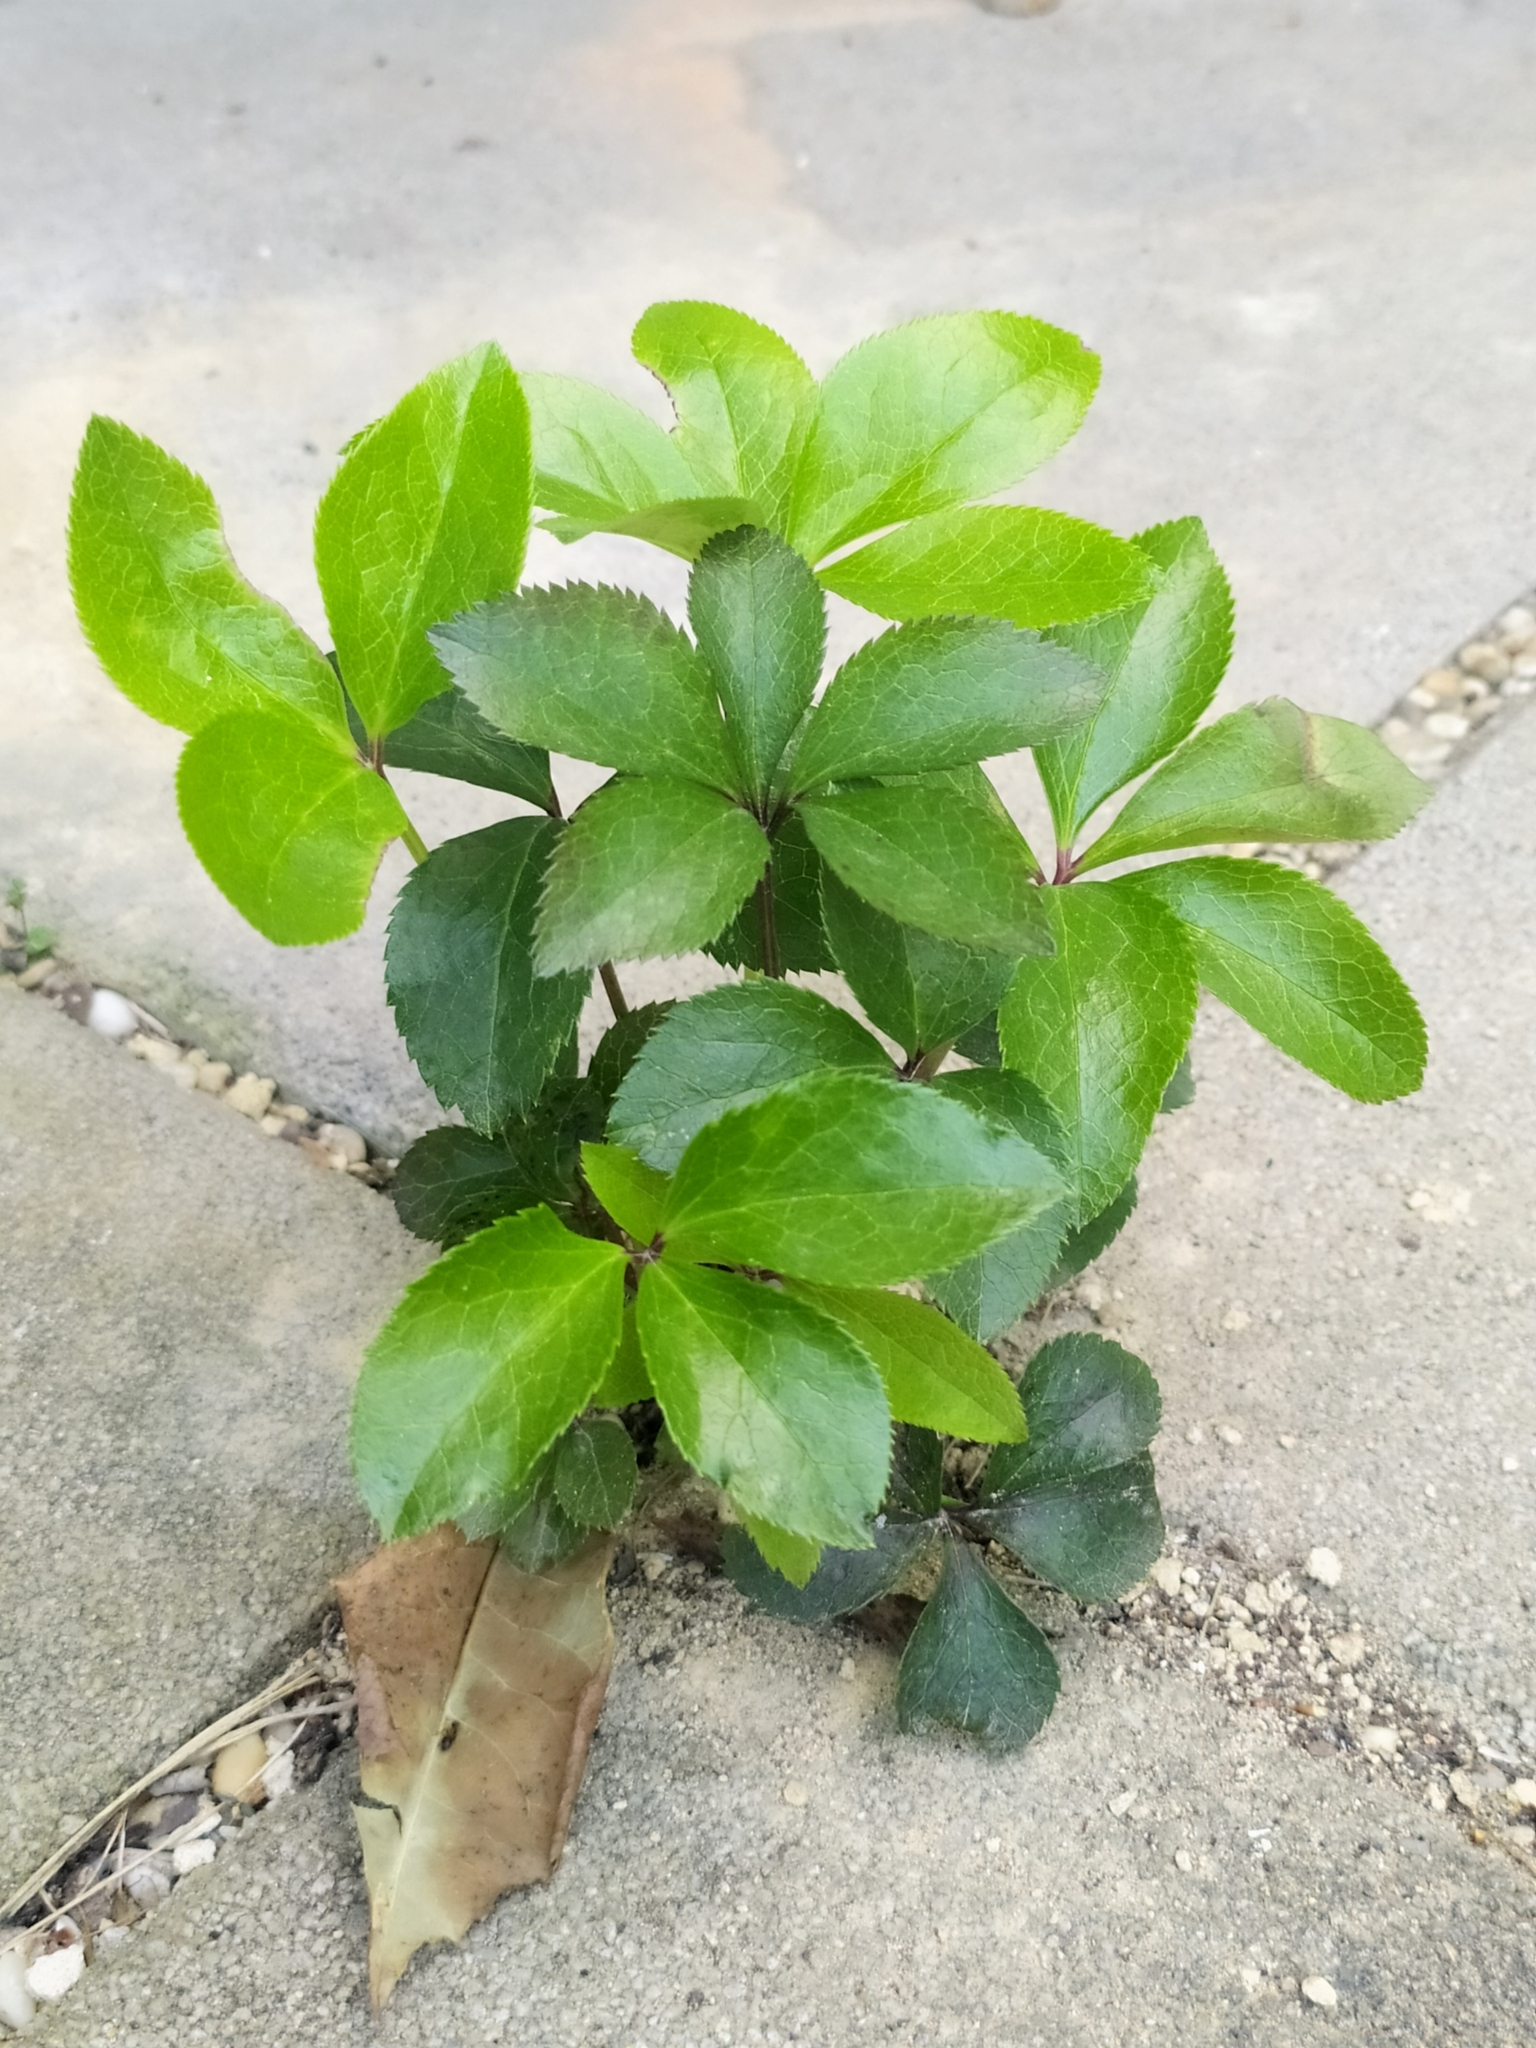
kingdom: Plantae
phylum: Tracheophyta
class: Magnoliopsida
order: Ranunculales
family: Ranunculaceae
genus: Helleborus
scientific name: Helleborus hybridus
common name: Hybrid lenten-rose
